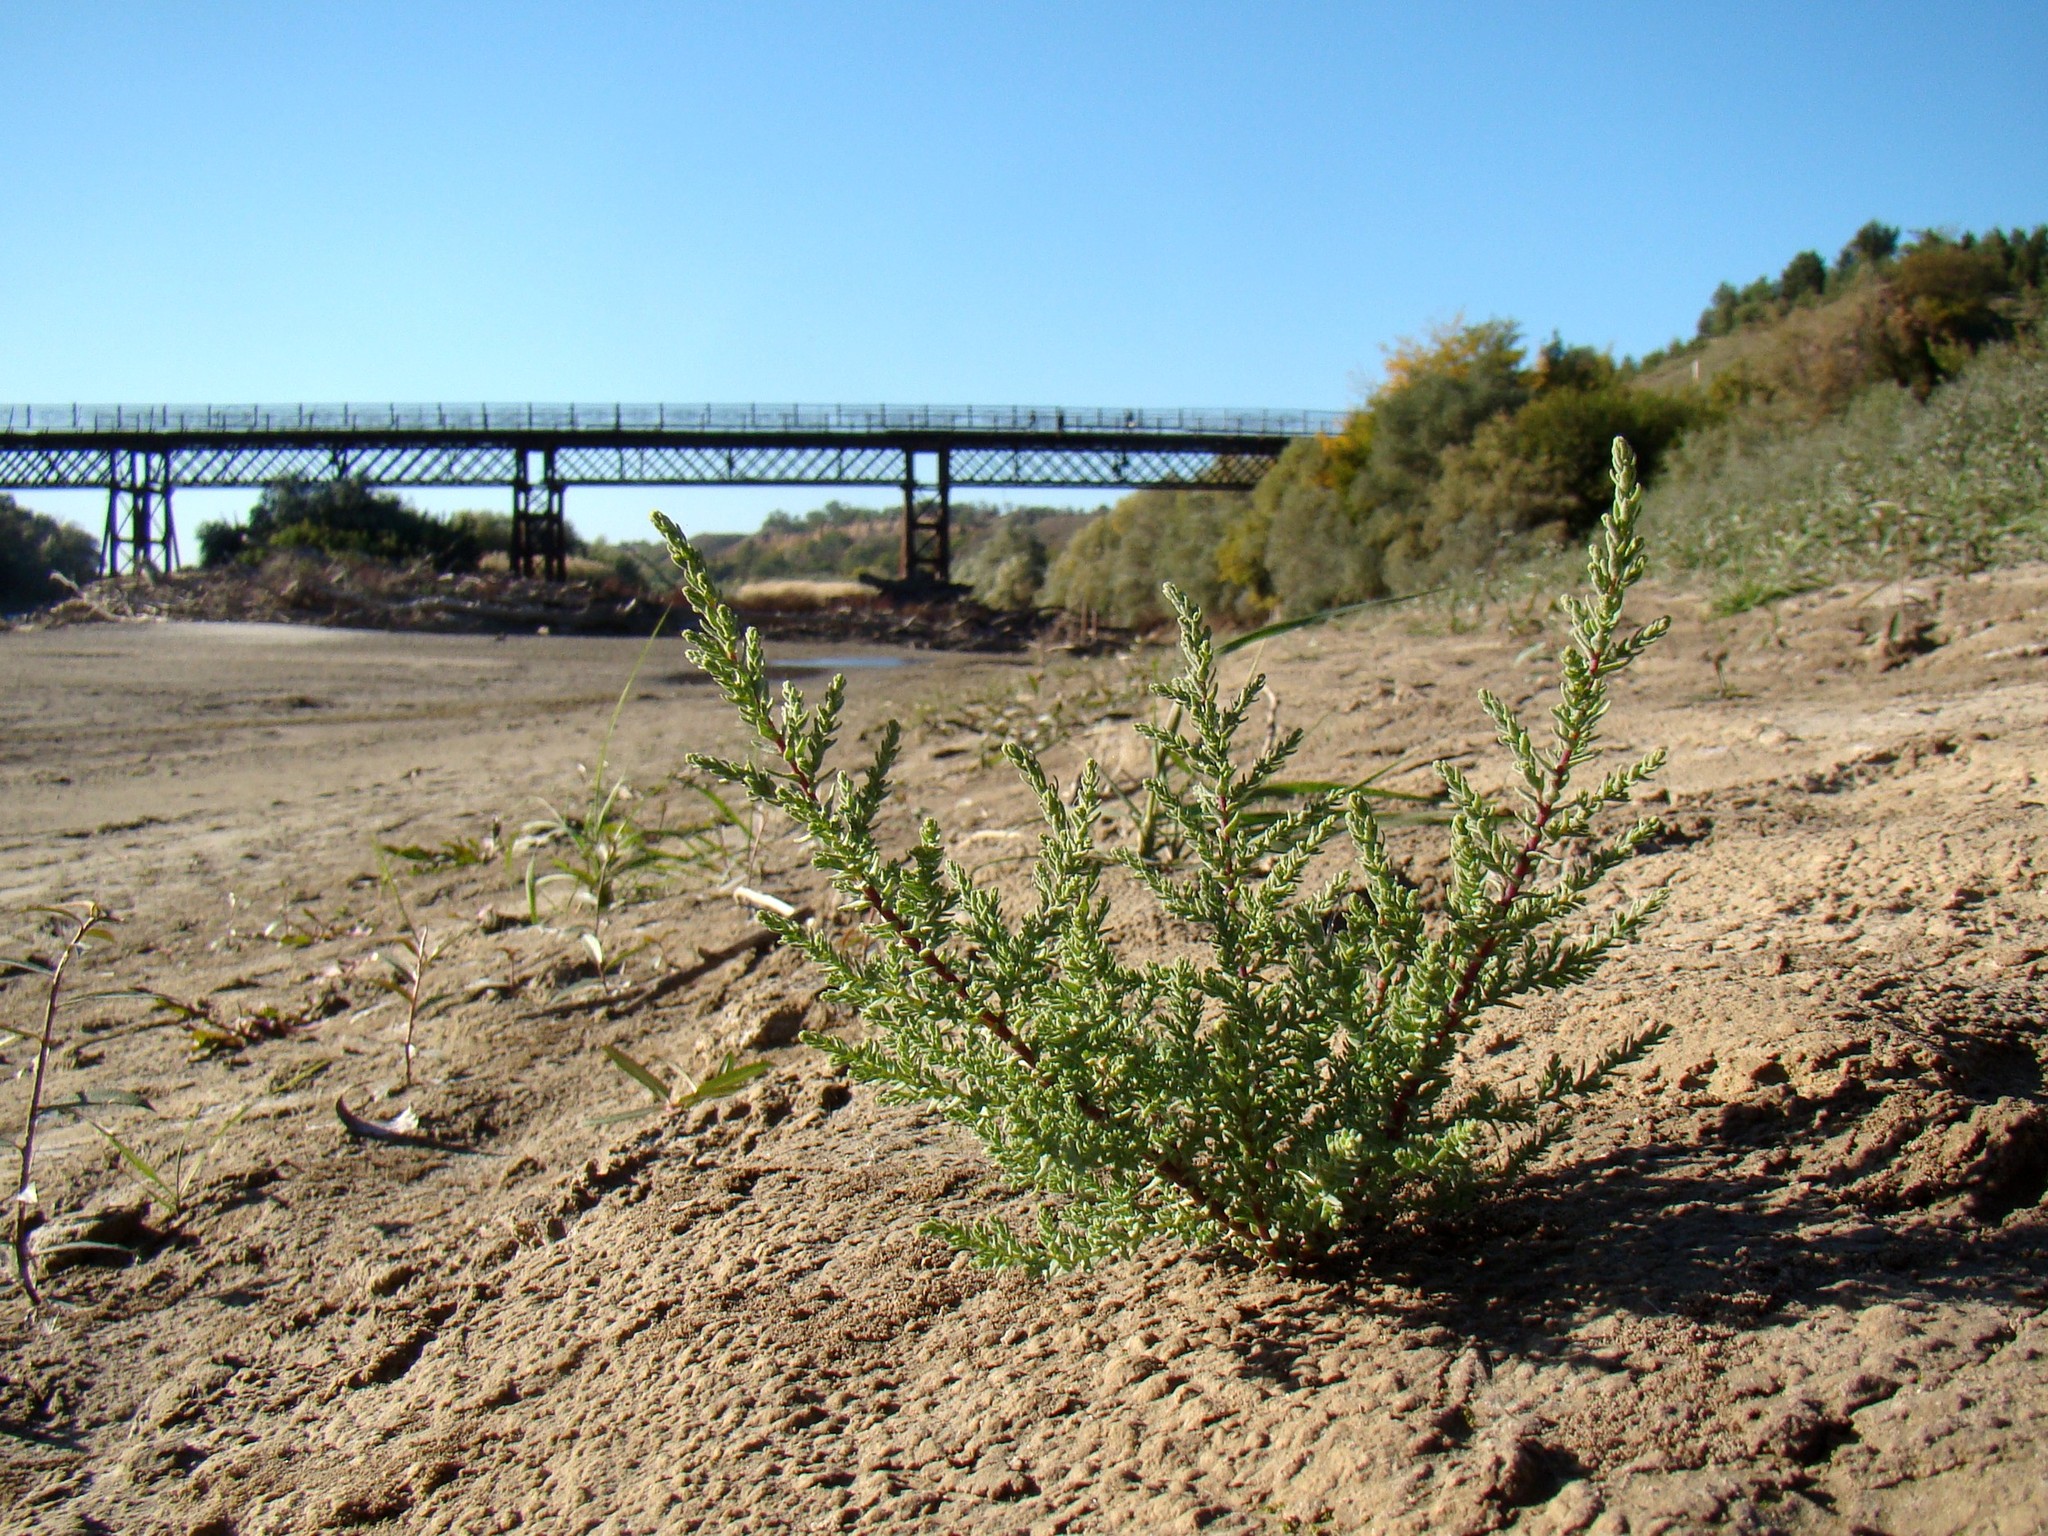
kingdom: Plantae
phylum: Tracheophyta
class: Magnoliopsida
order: Caryophyllales
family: Tamaricaceae
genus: Myricaria
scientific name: Myricaria bracteata
